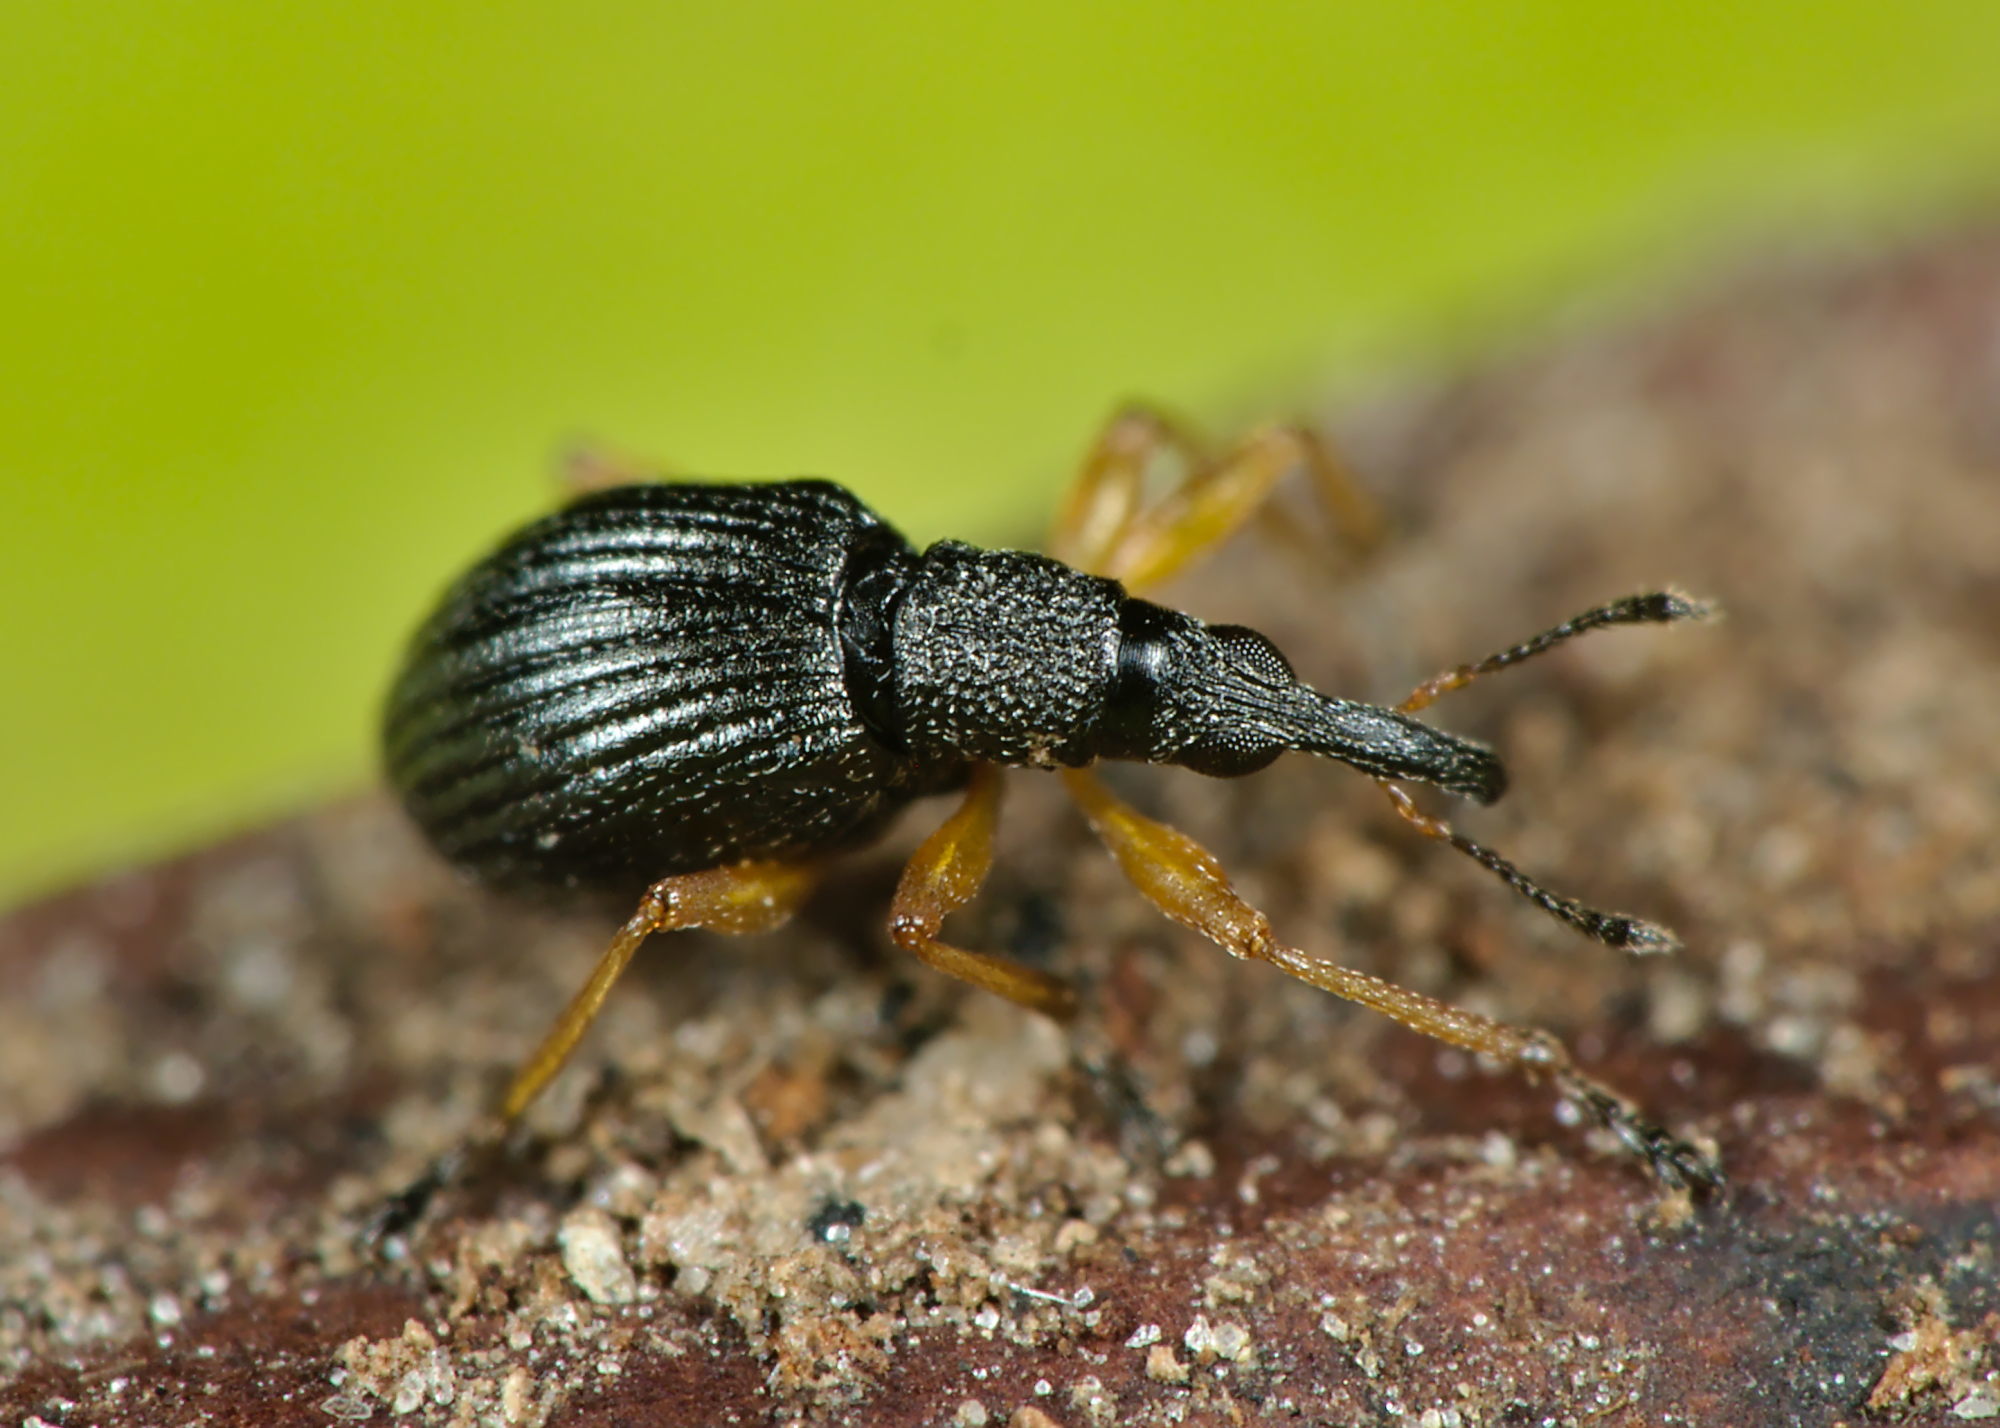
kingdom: Animalia
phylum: Arthropoda
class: Insecta
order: Coleoptera
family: Apionidae
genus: Protapion
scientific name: Protapion fulvipes
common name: White clover seed weevil
